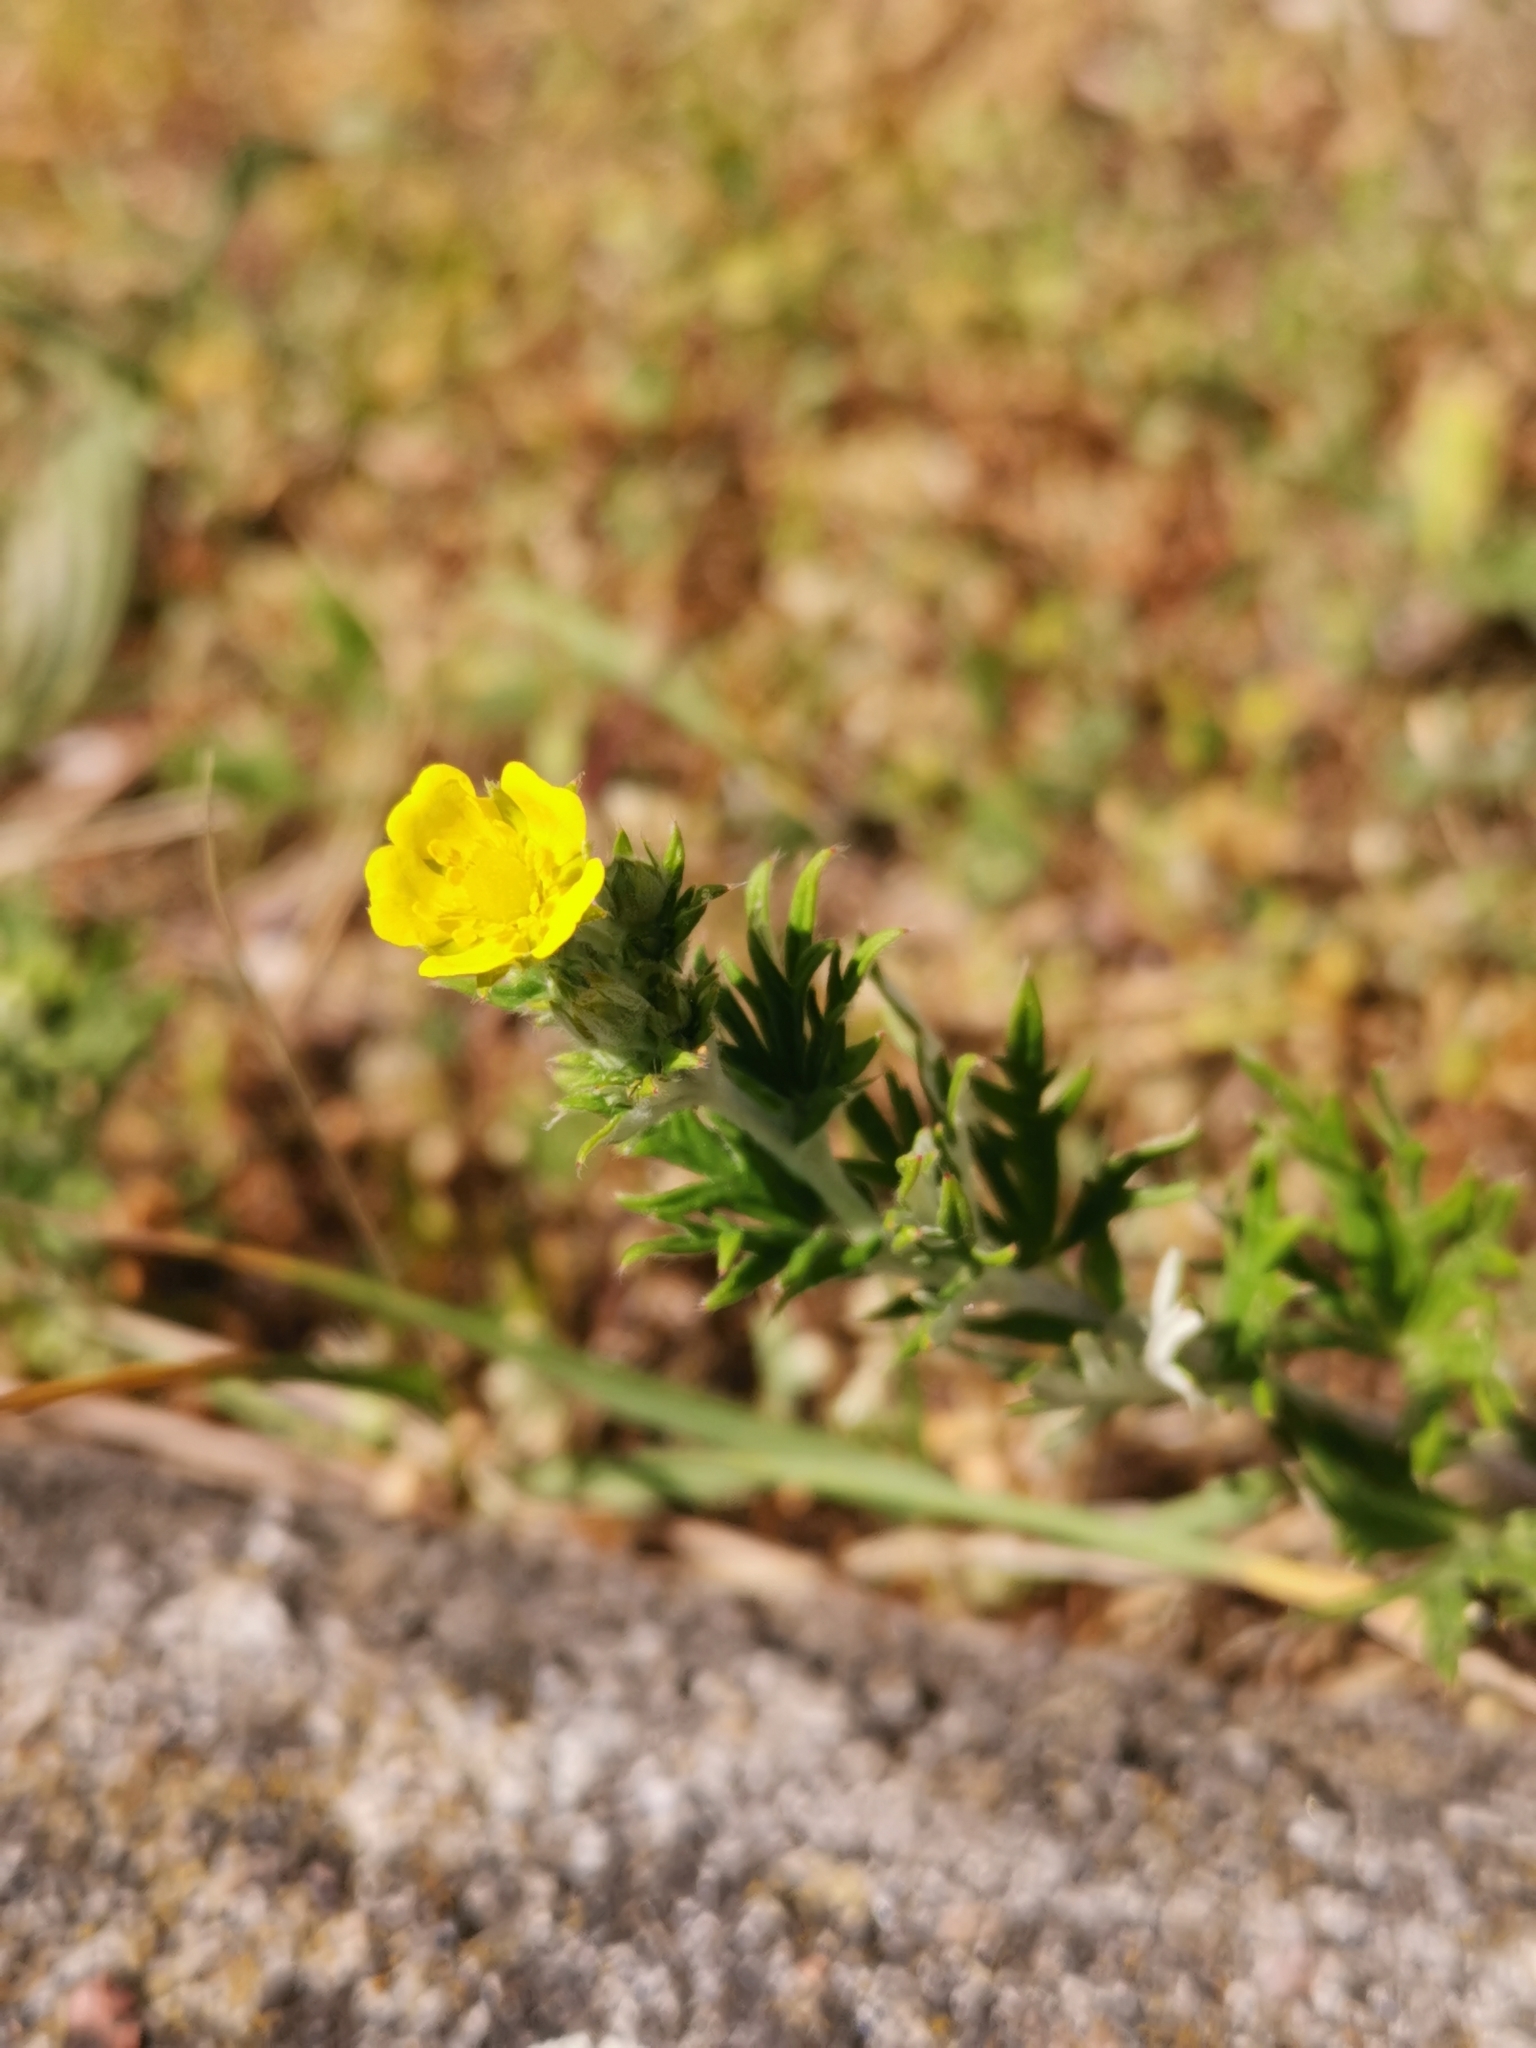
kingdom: Plantae
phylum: Tracheophyta
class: Magnoliopsida
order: Rosales
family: Rosaceae
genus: Potentilla
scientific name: Potentilla argentea
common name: Hoary cinquefoil
